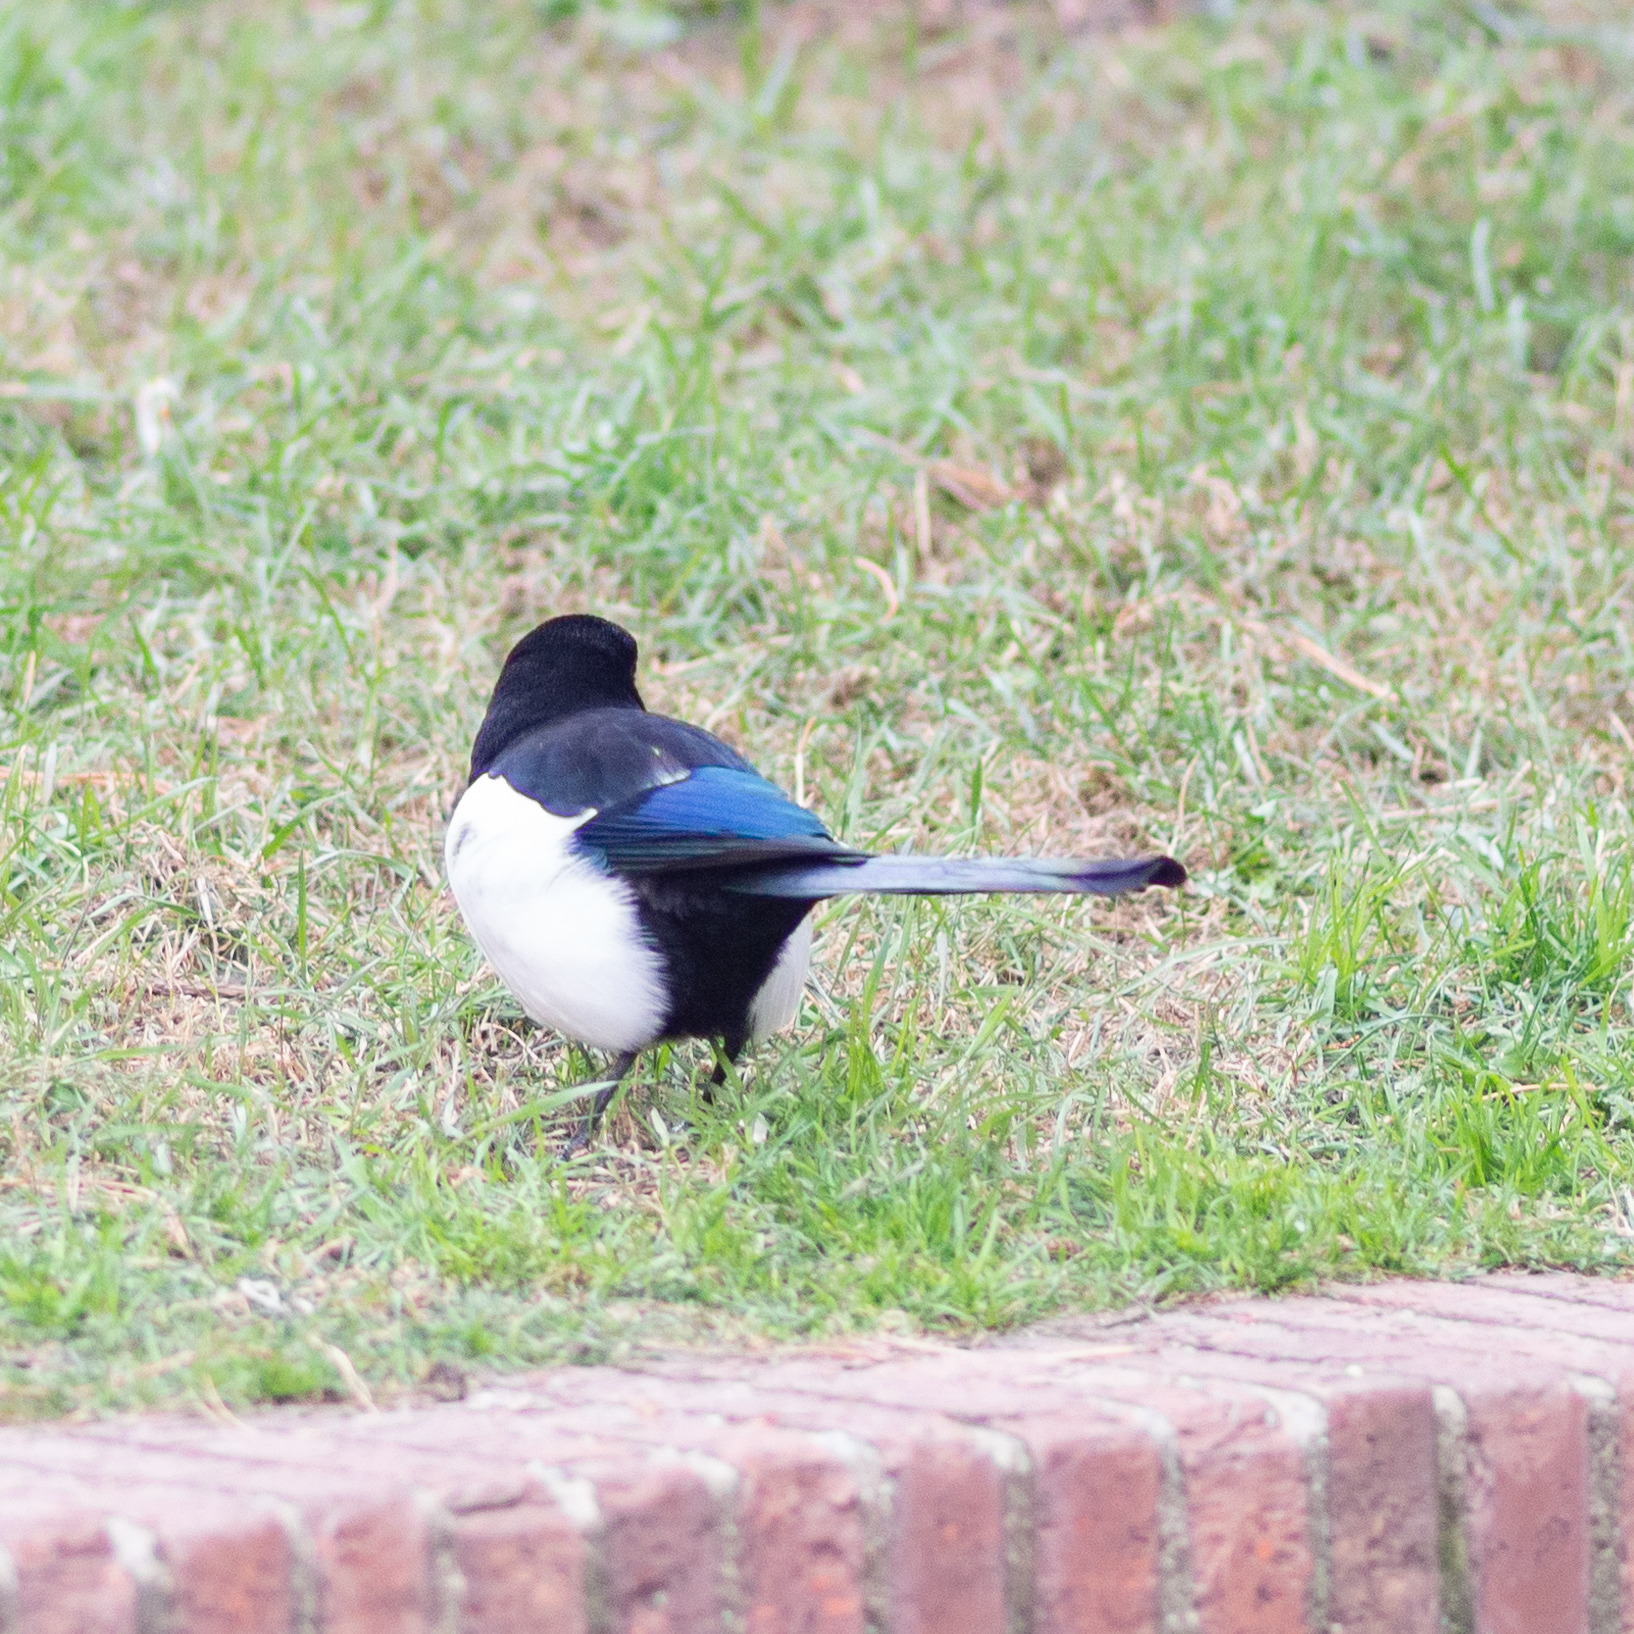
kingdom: Animalia
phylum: Chordata
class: Aves
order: Passeriformes
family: Corvidae
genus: Pica
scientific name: Pica pica
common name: Eurasian magpie
